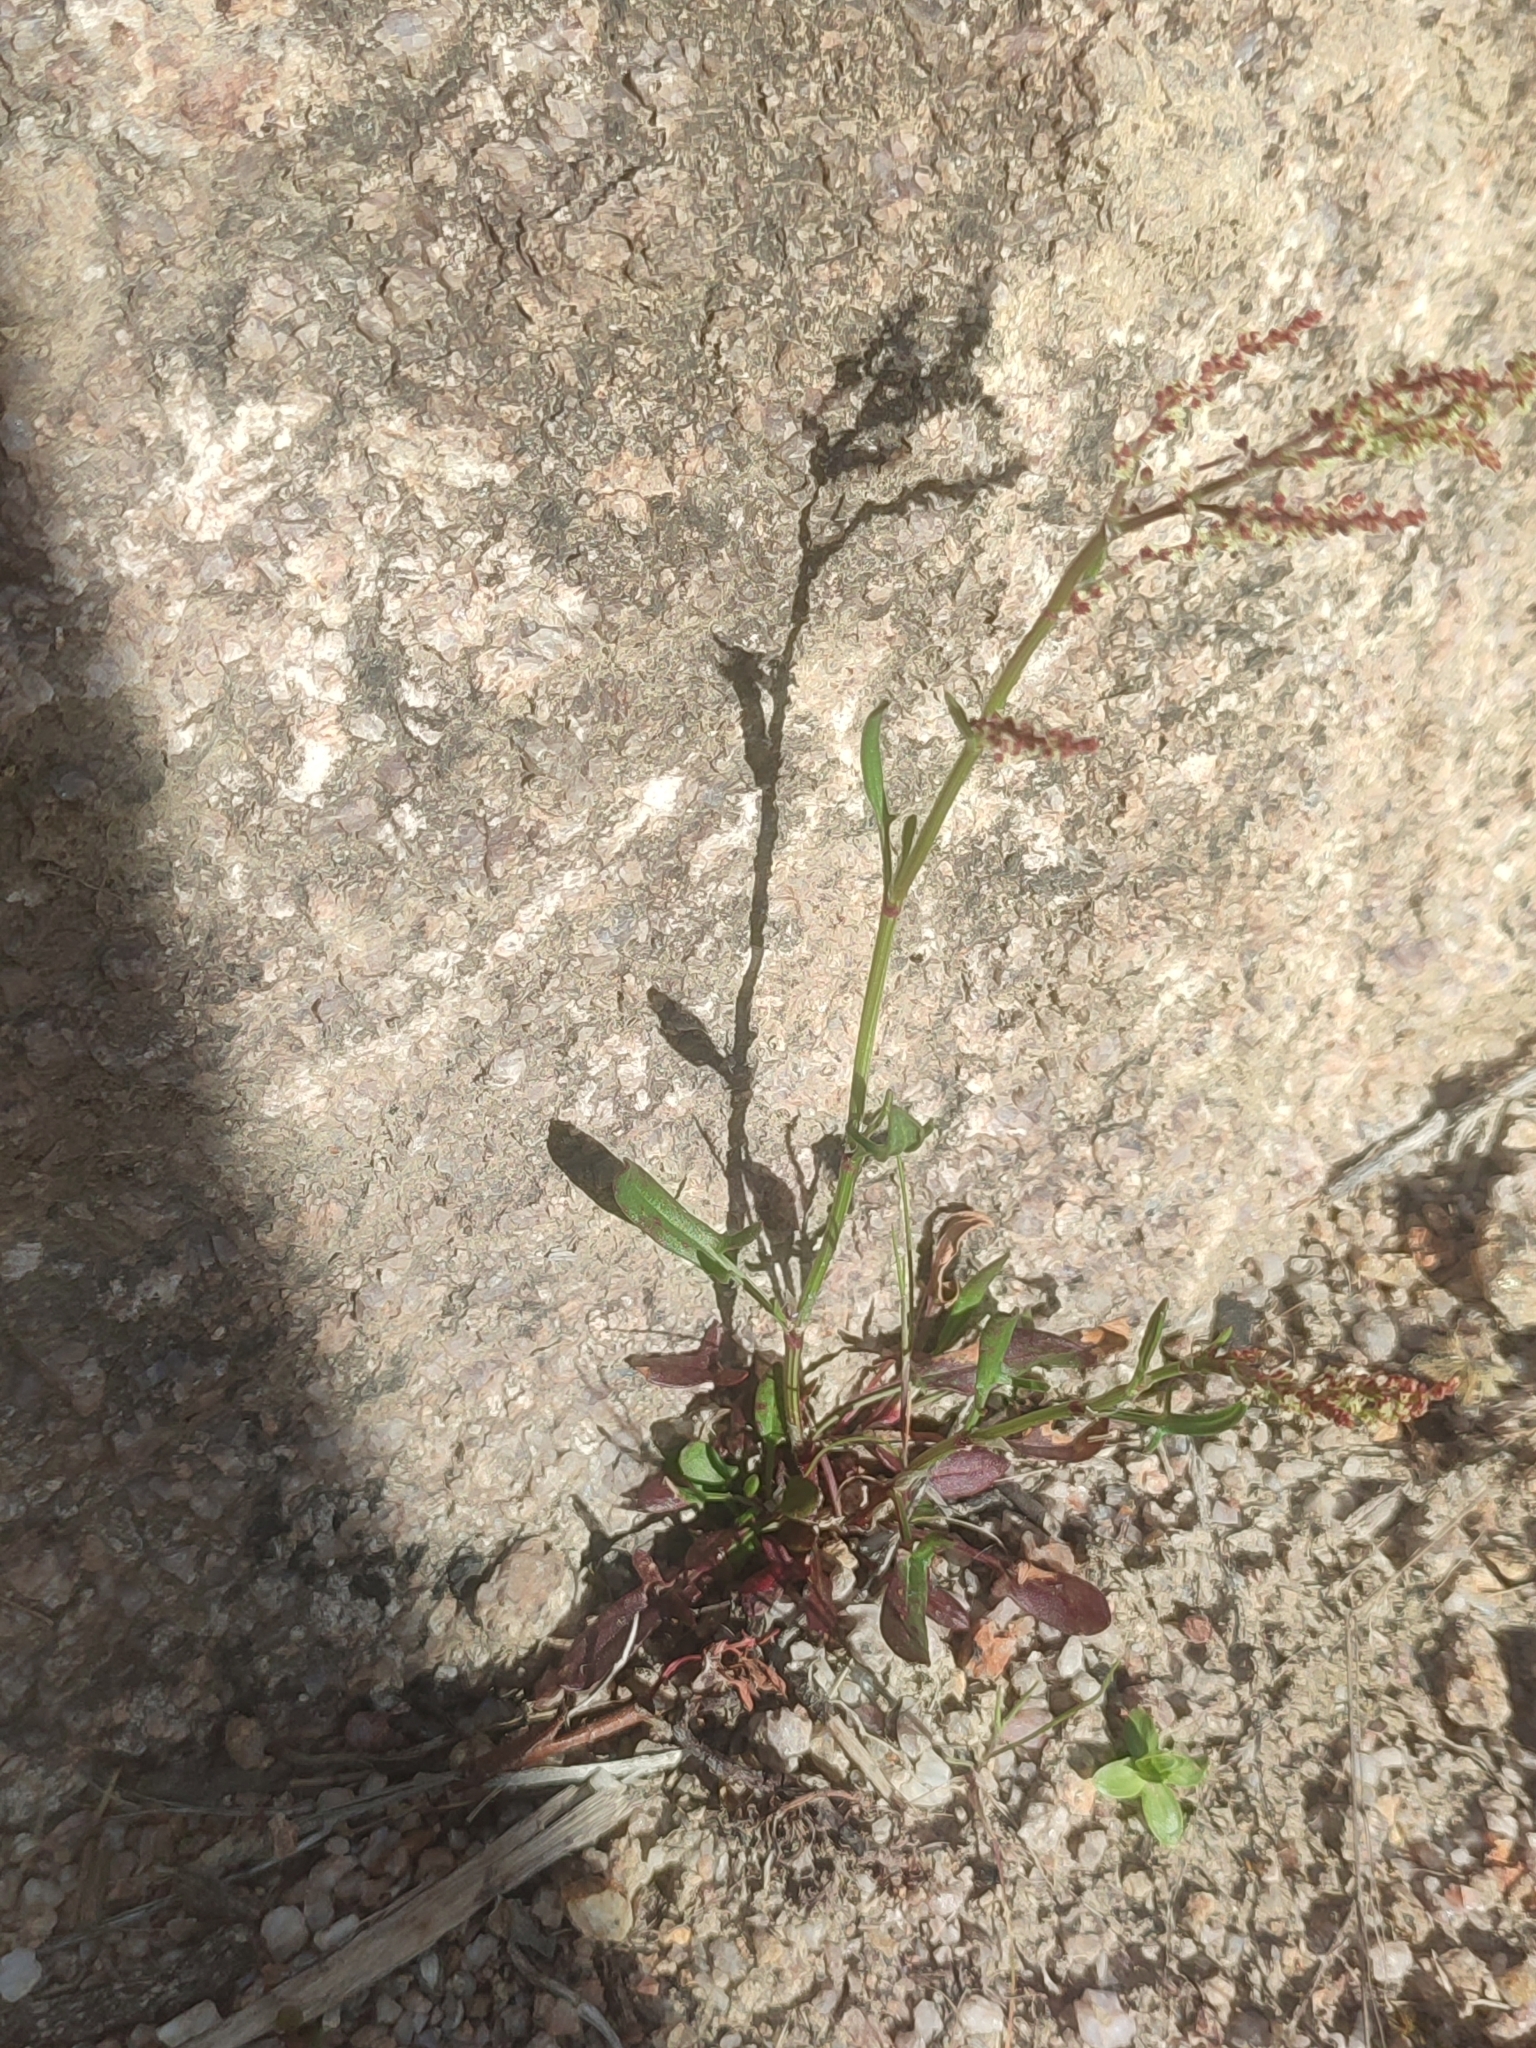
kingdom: Plantae
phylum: Tracheophyta
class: Magnoliopsida
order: Caryophyllales
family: Polygonaceae
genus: Rumex
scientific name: Rumex acetosella
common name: Common sheep sorrel
